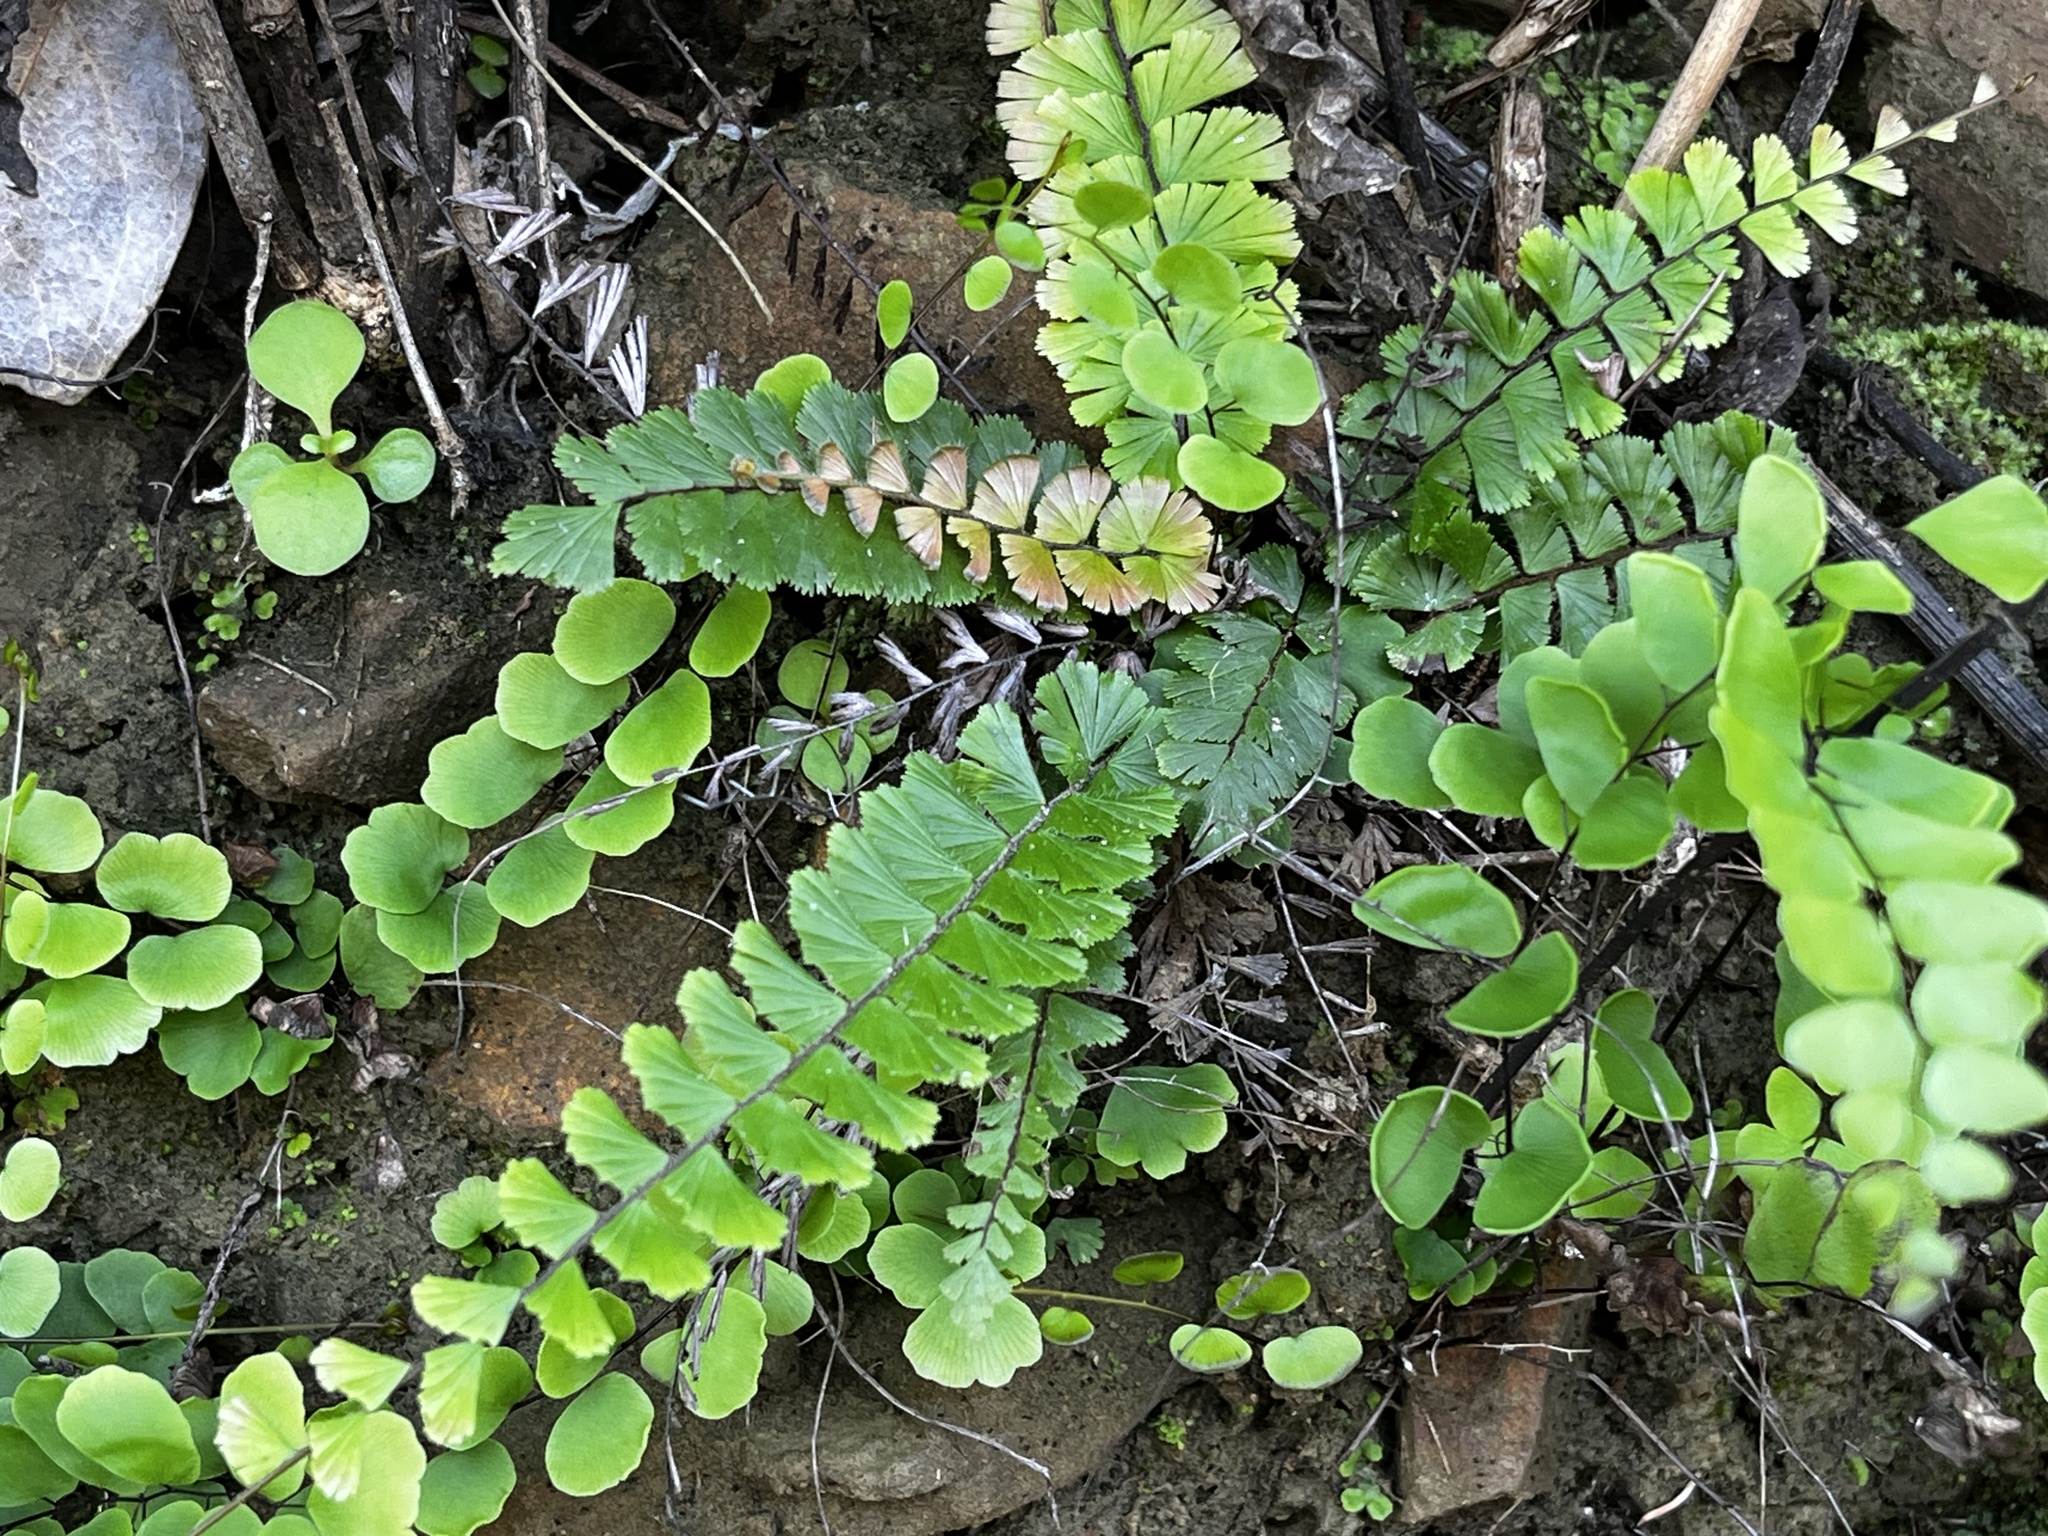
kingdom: Plantae
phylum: Tracheophyta
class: Polypodiopsida
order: Polypodiales
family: Pteridaceae
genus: Adiantum
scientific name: Adiantum ciliatum
